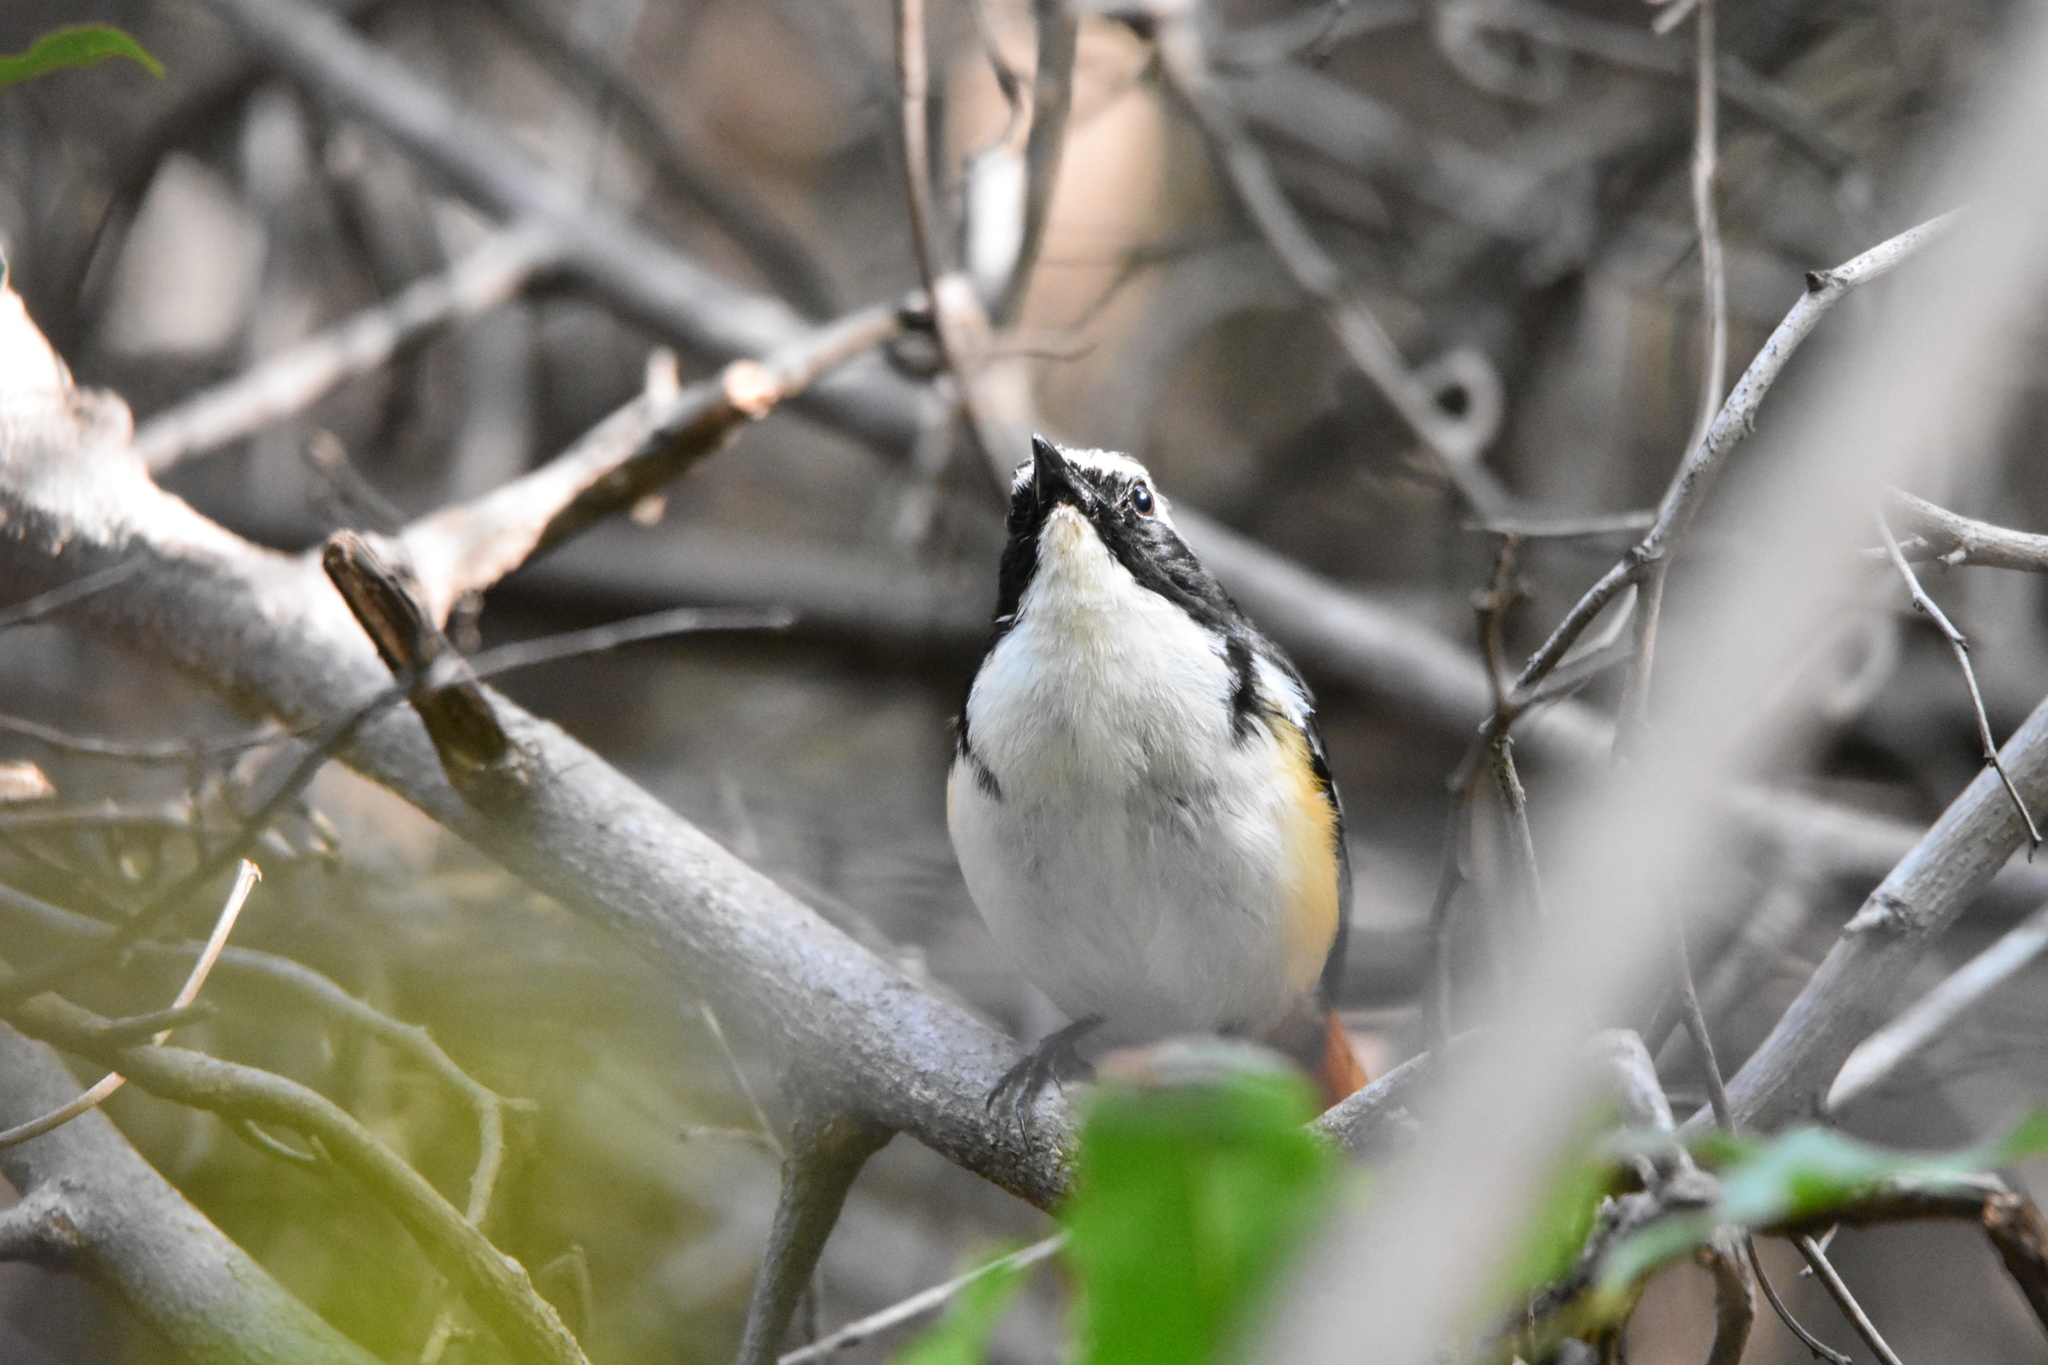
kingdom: Animalia
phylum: Chordata
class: Aves
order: Passeriformes
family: Muscicapidae
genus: Cossypha
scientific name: Cossypha humeralis
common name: White-throated robin-chat
